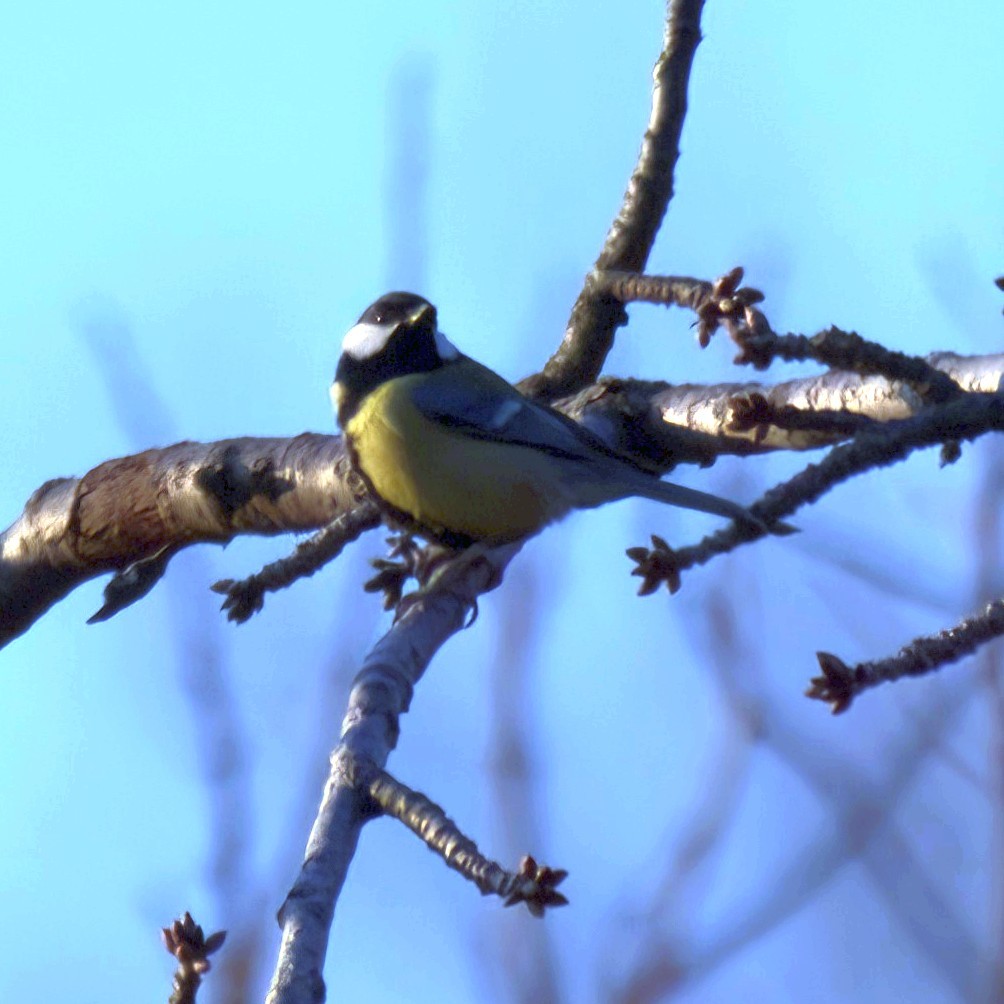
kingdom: Animalia
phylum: Chordata
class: Aves
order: Passeriformes
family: Paridae
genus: Parus
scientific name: Parus major
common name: Great tit
